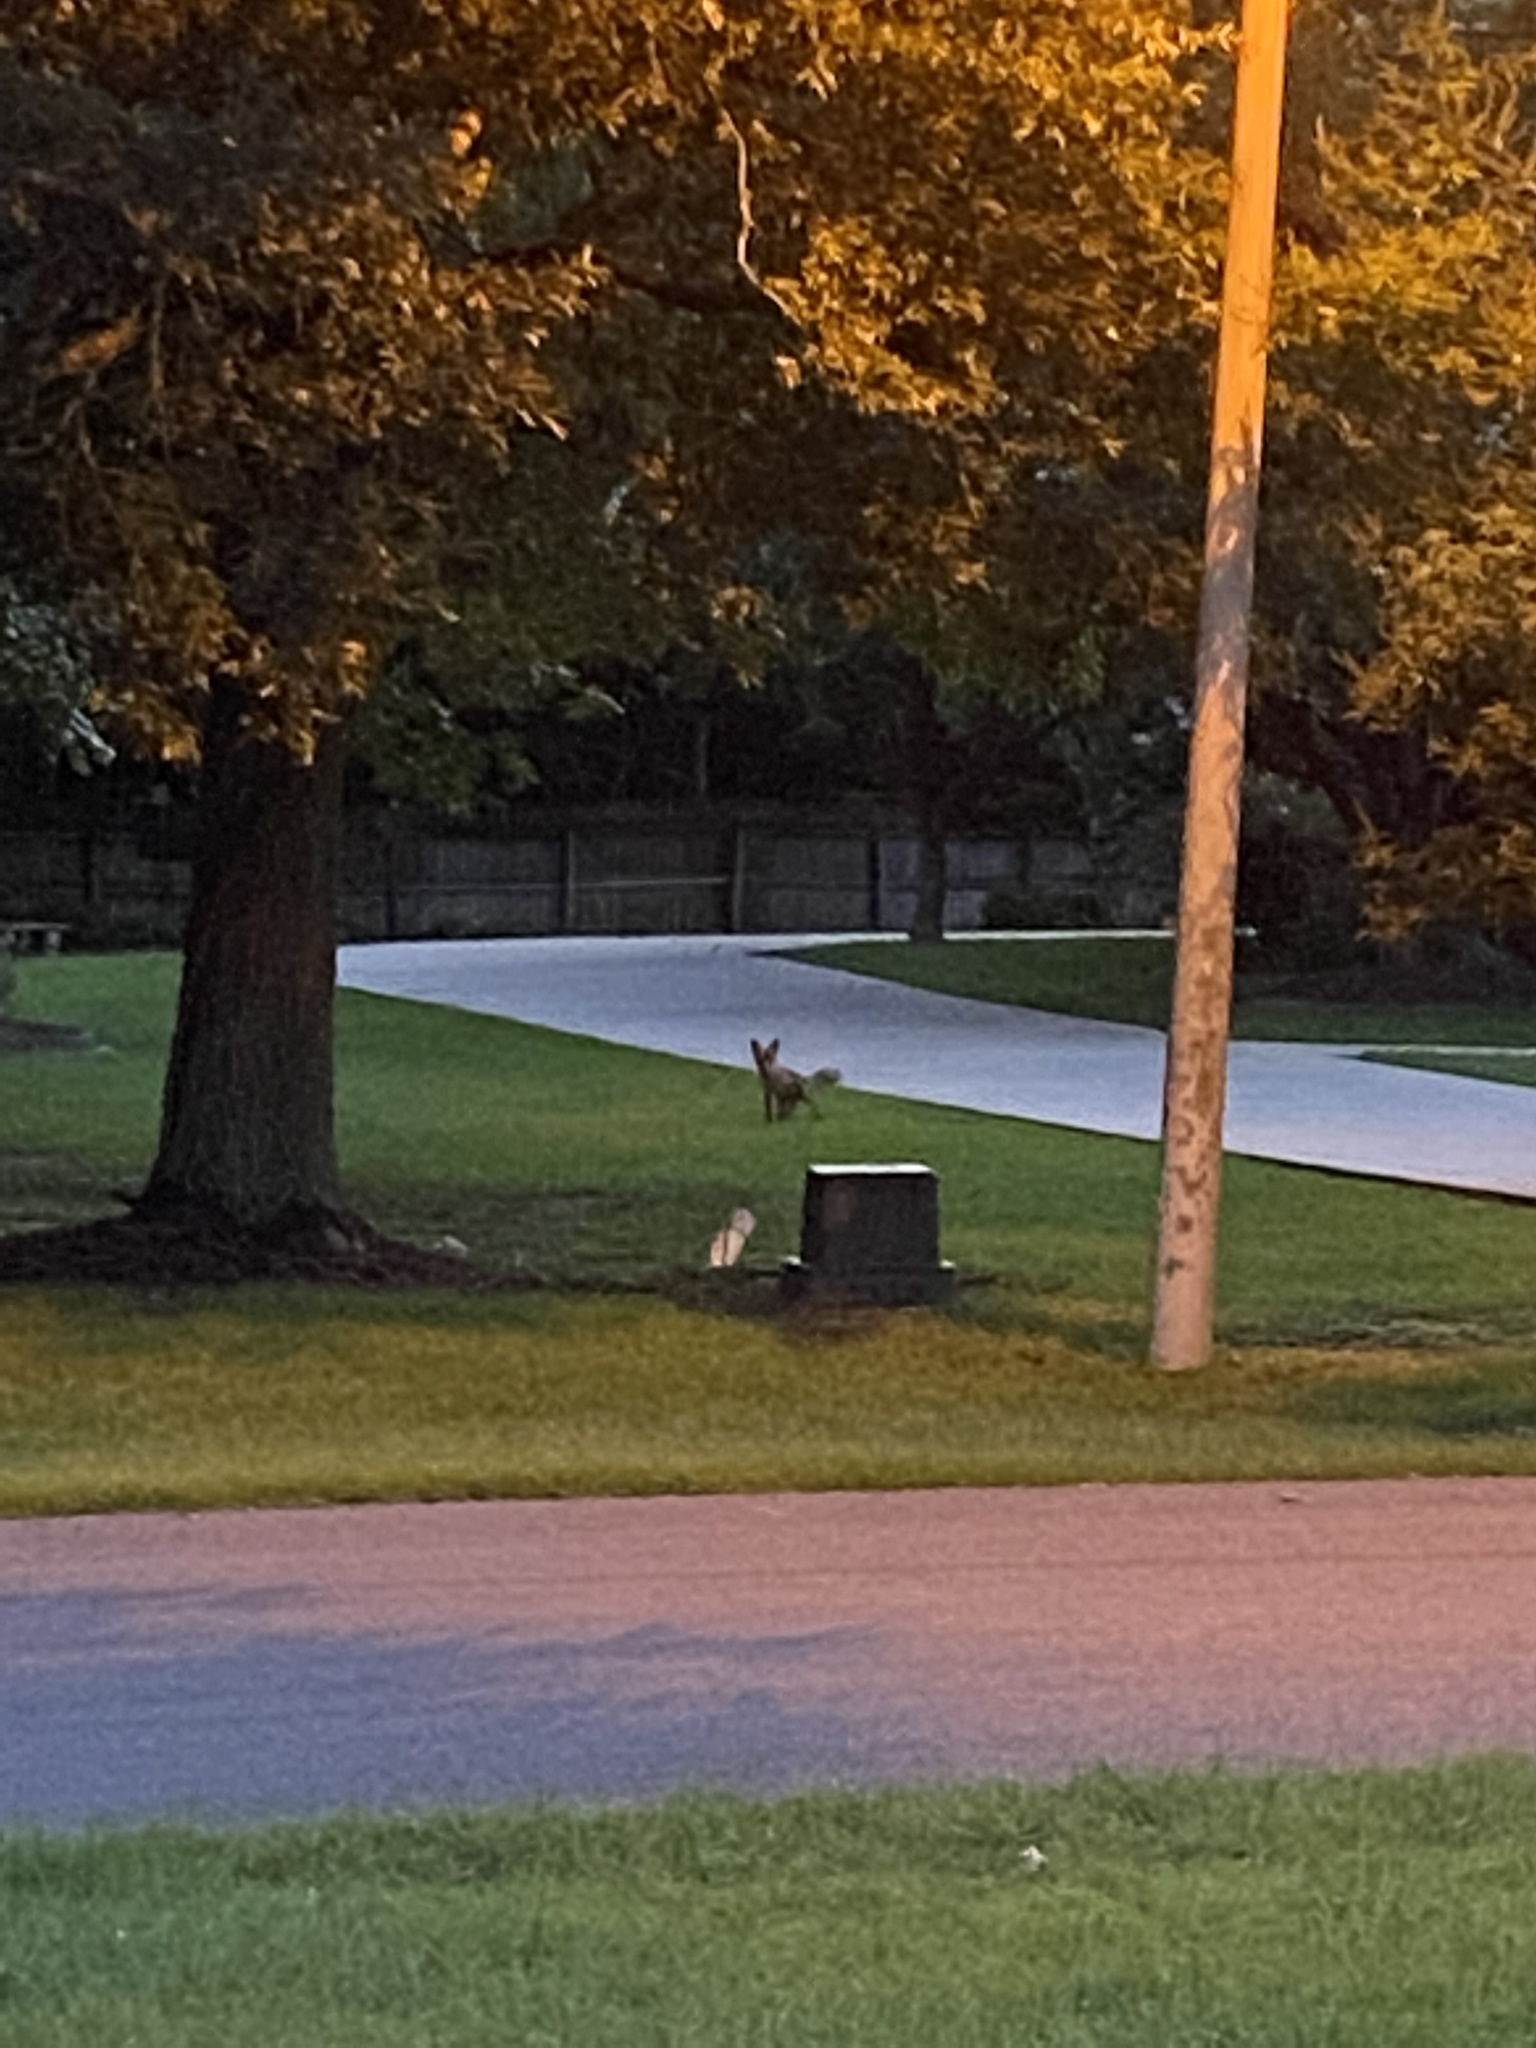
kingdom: Animalia
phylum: Chordata
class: Mammalia
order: Carnivora
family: Canidae
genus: Vulpes
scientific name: Vulpes vulpes
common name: Red fox
